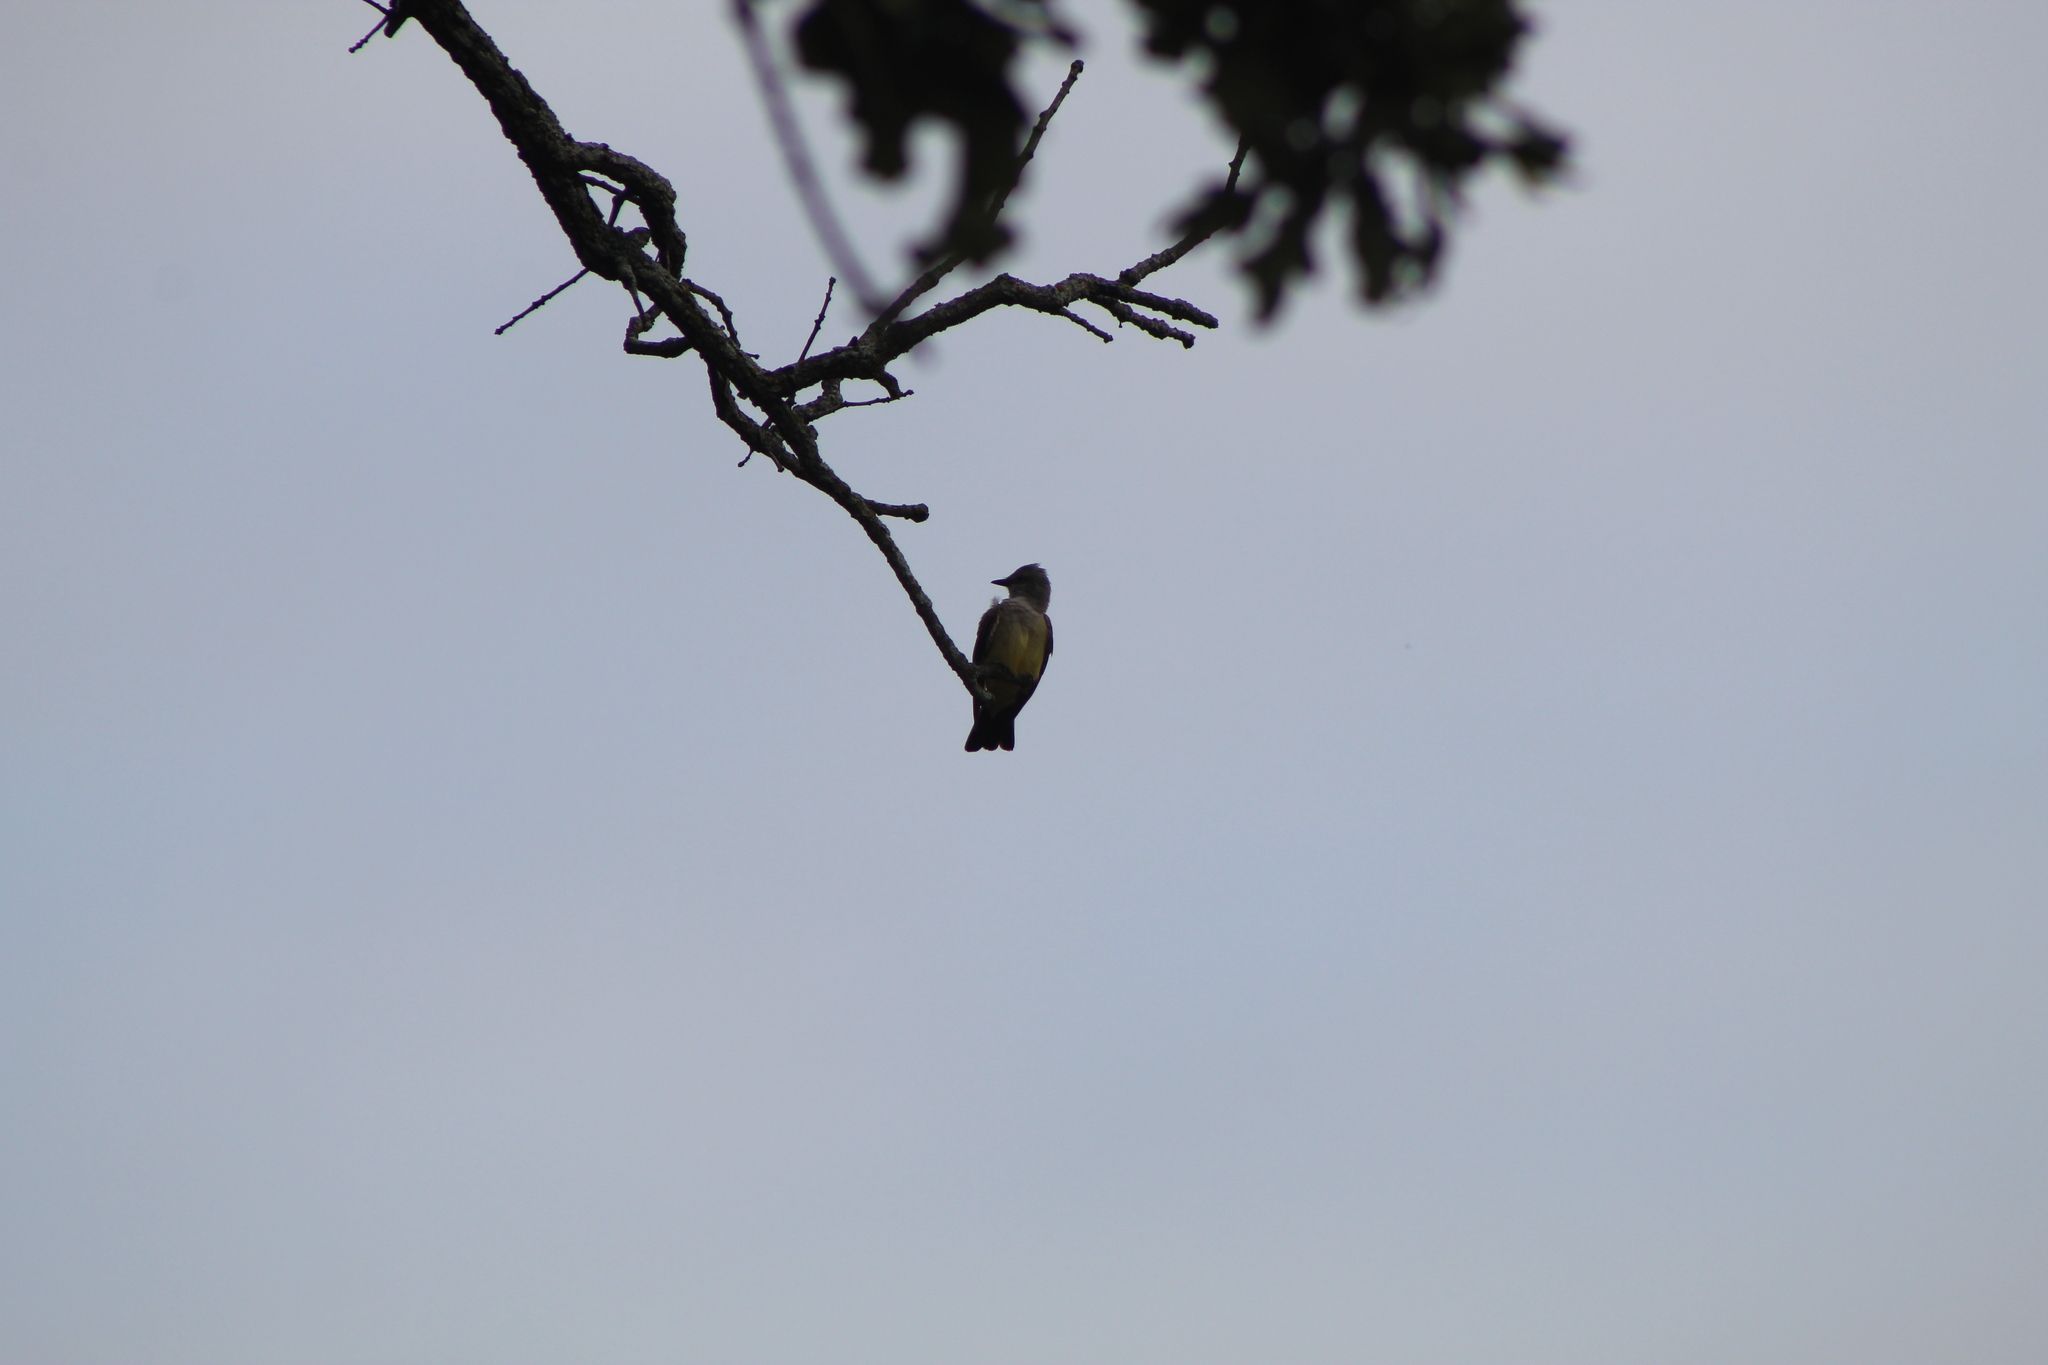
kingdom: Animalia
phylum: Chordata
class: Aves
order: Passeriformes
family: Tyrannidae
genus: Tyrannus
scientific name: Tyrannus verticalis
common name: Western kingbird
